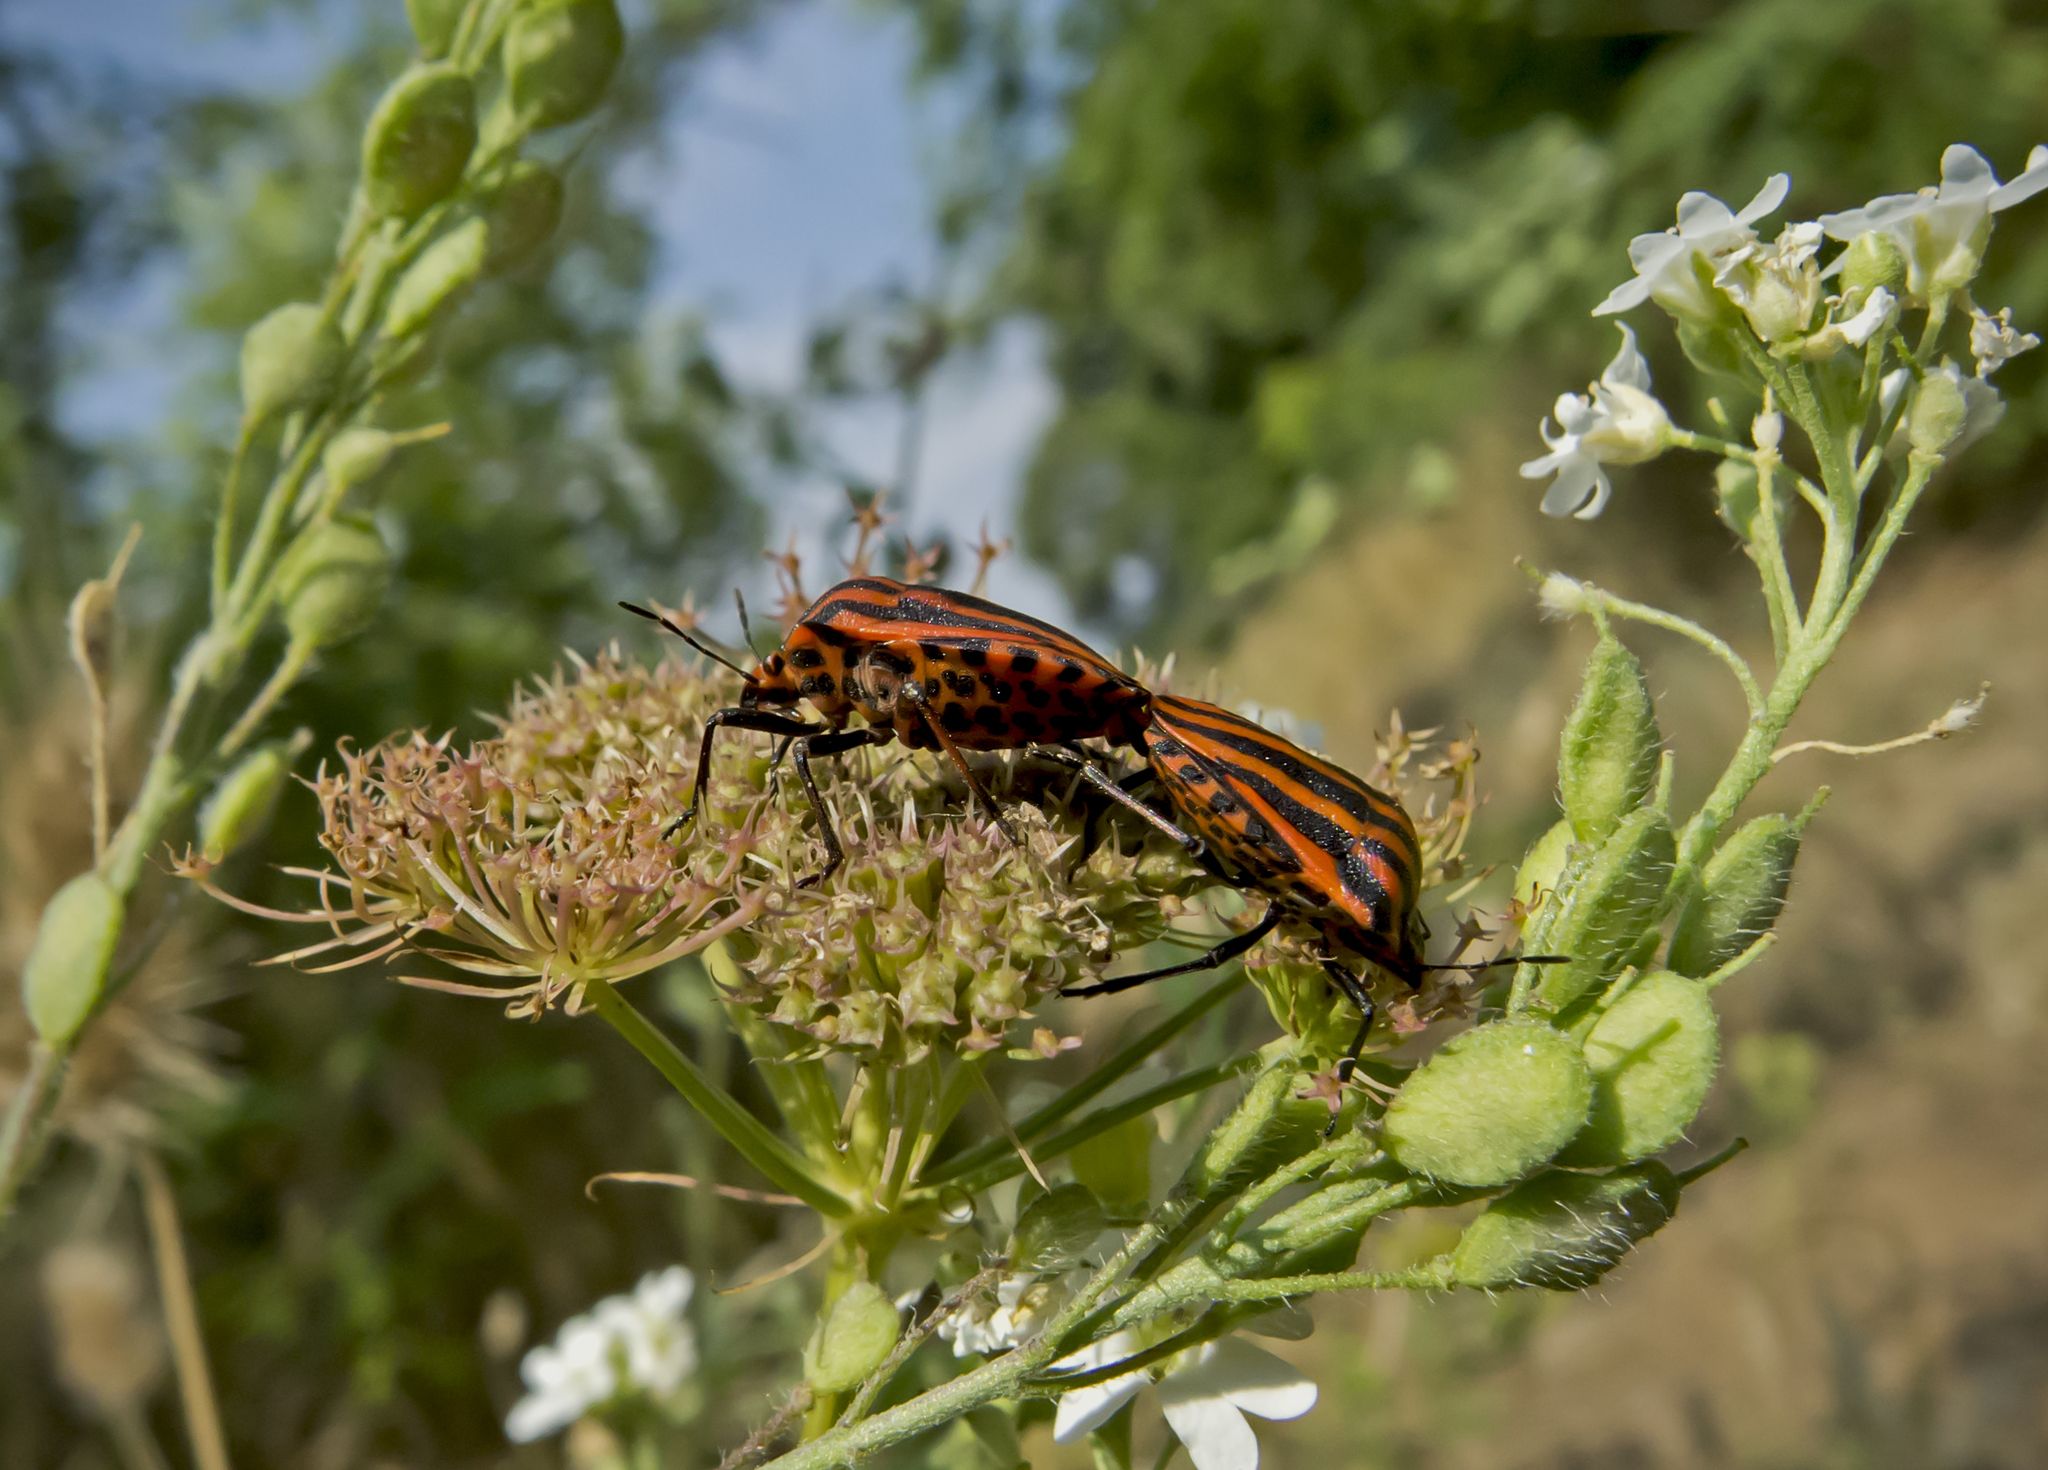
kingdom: Animalia
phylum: Arthropoda
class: Insecta
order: Hemiptera
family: Pentatomidae
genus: Graphosoma
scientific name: Graphosoma italicum
